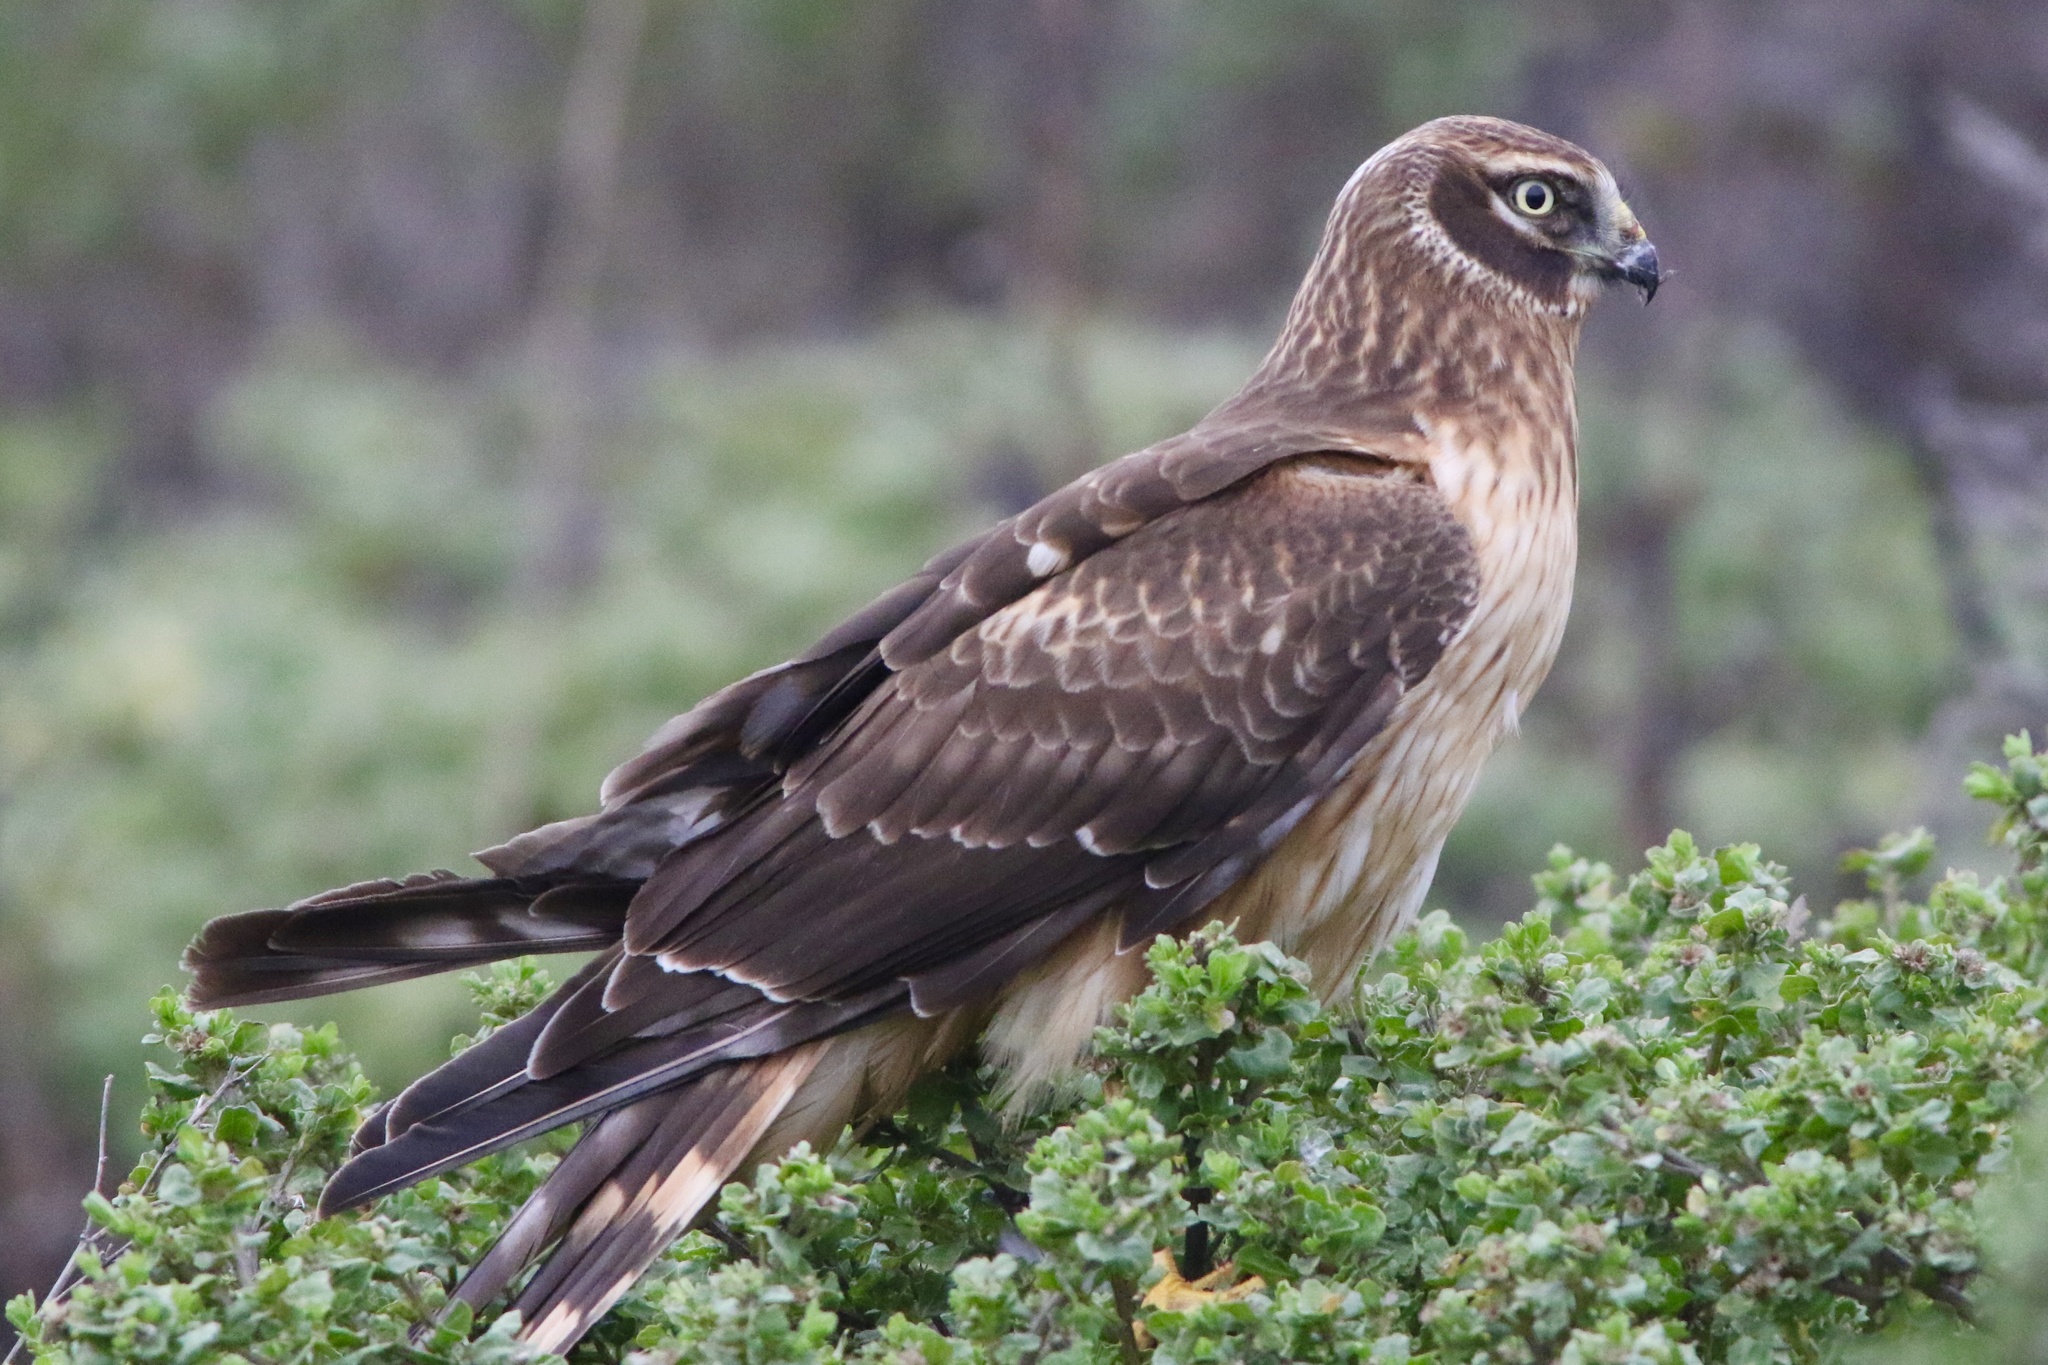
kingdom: Animalia
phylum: Chordata
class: Aves
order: Accipitriformes
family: Accipitridae
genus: Circus
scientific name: Circus cyaneus
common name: Hen harrier
